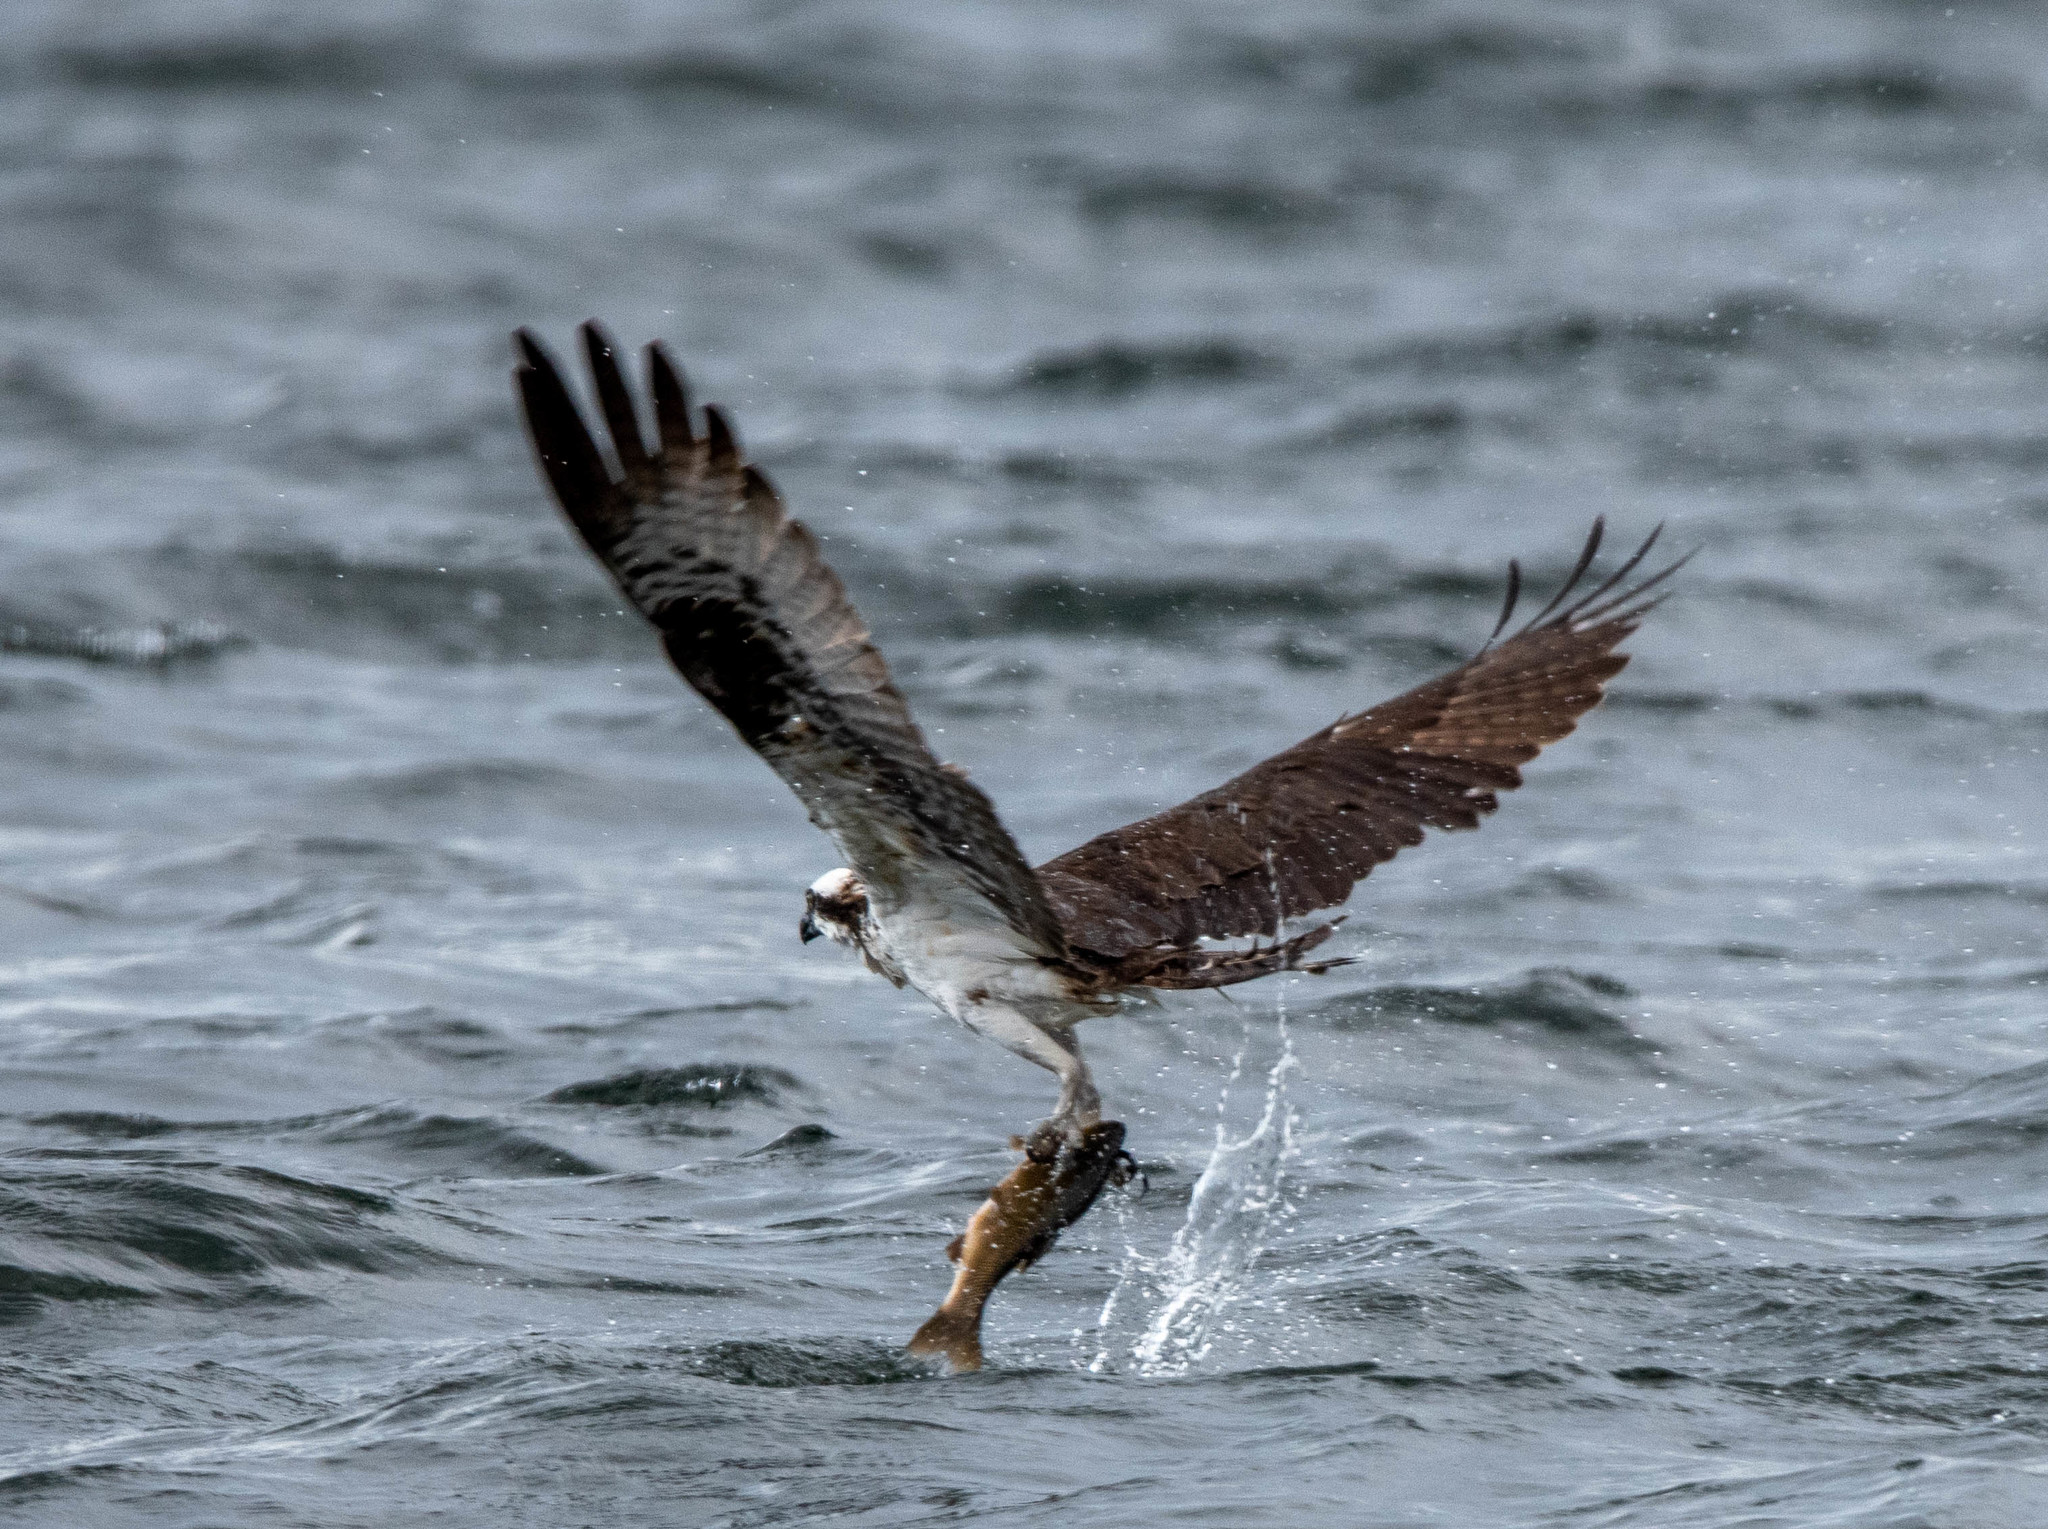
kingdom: Animalia
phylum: Chordata
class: Aves
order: Accipitriformes
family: Pandionidae
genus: Pandion
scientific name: Pandion haliaetus
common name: Osprey
